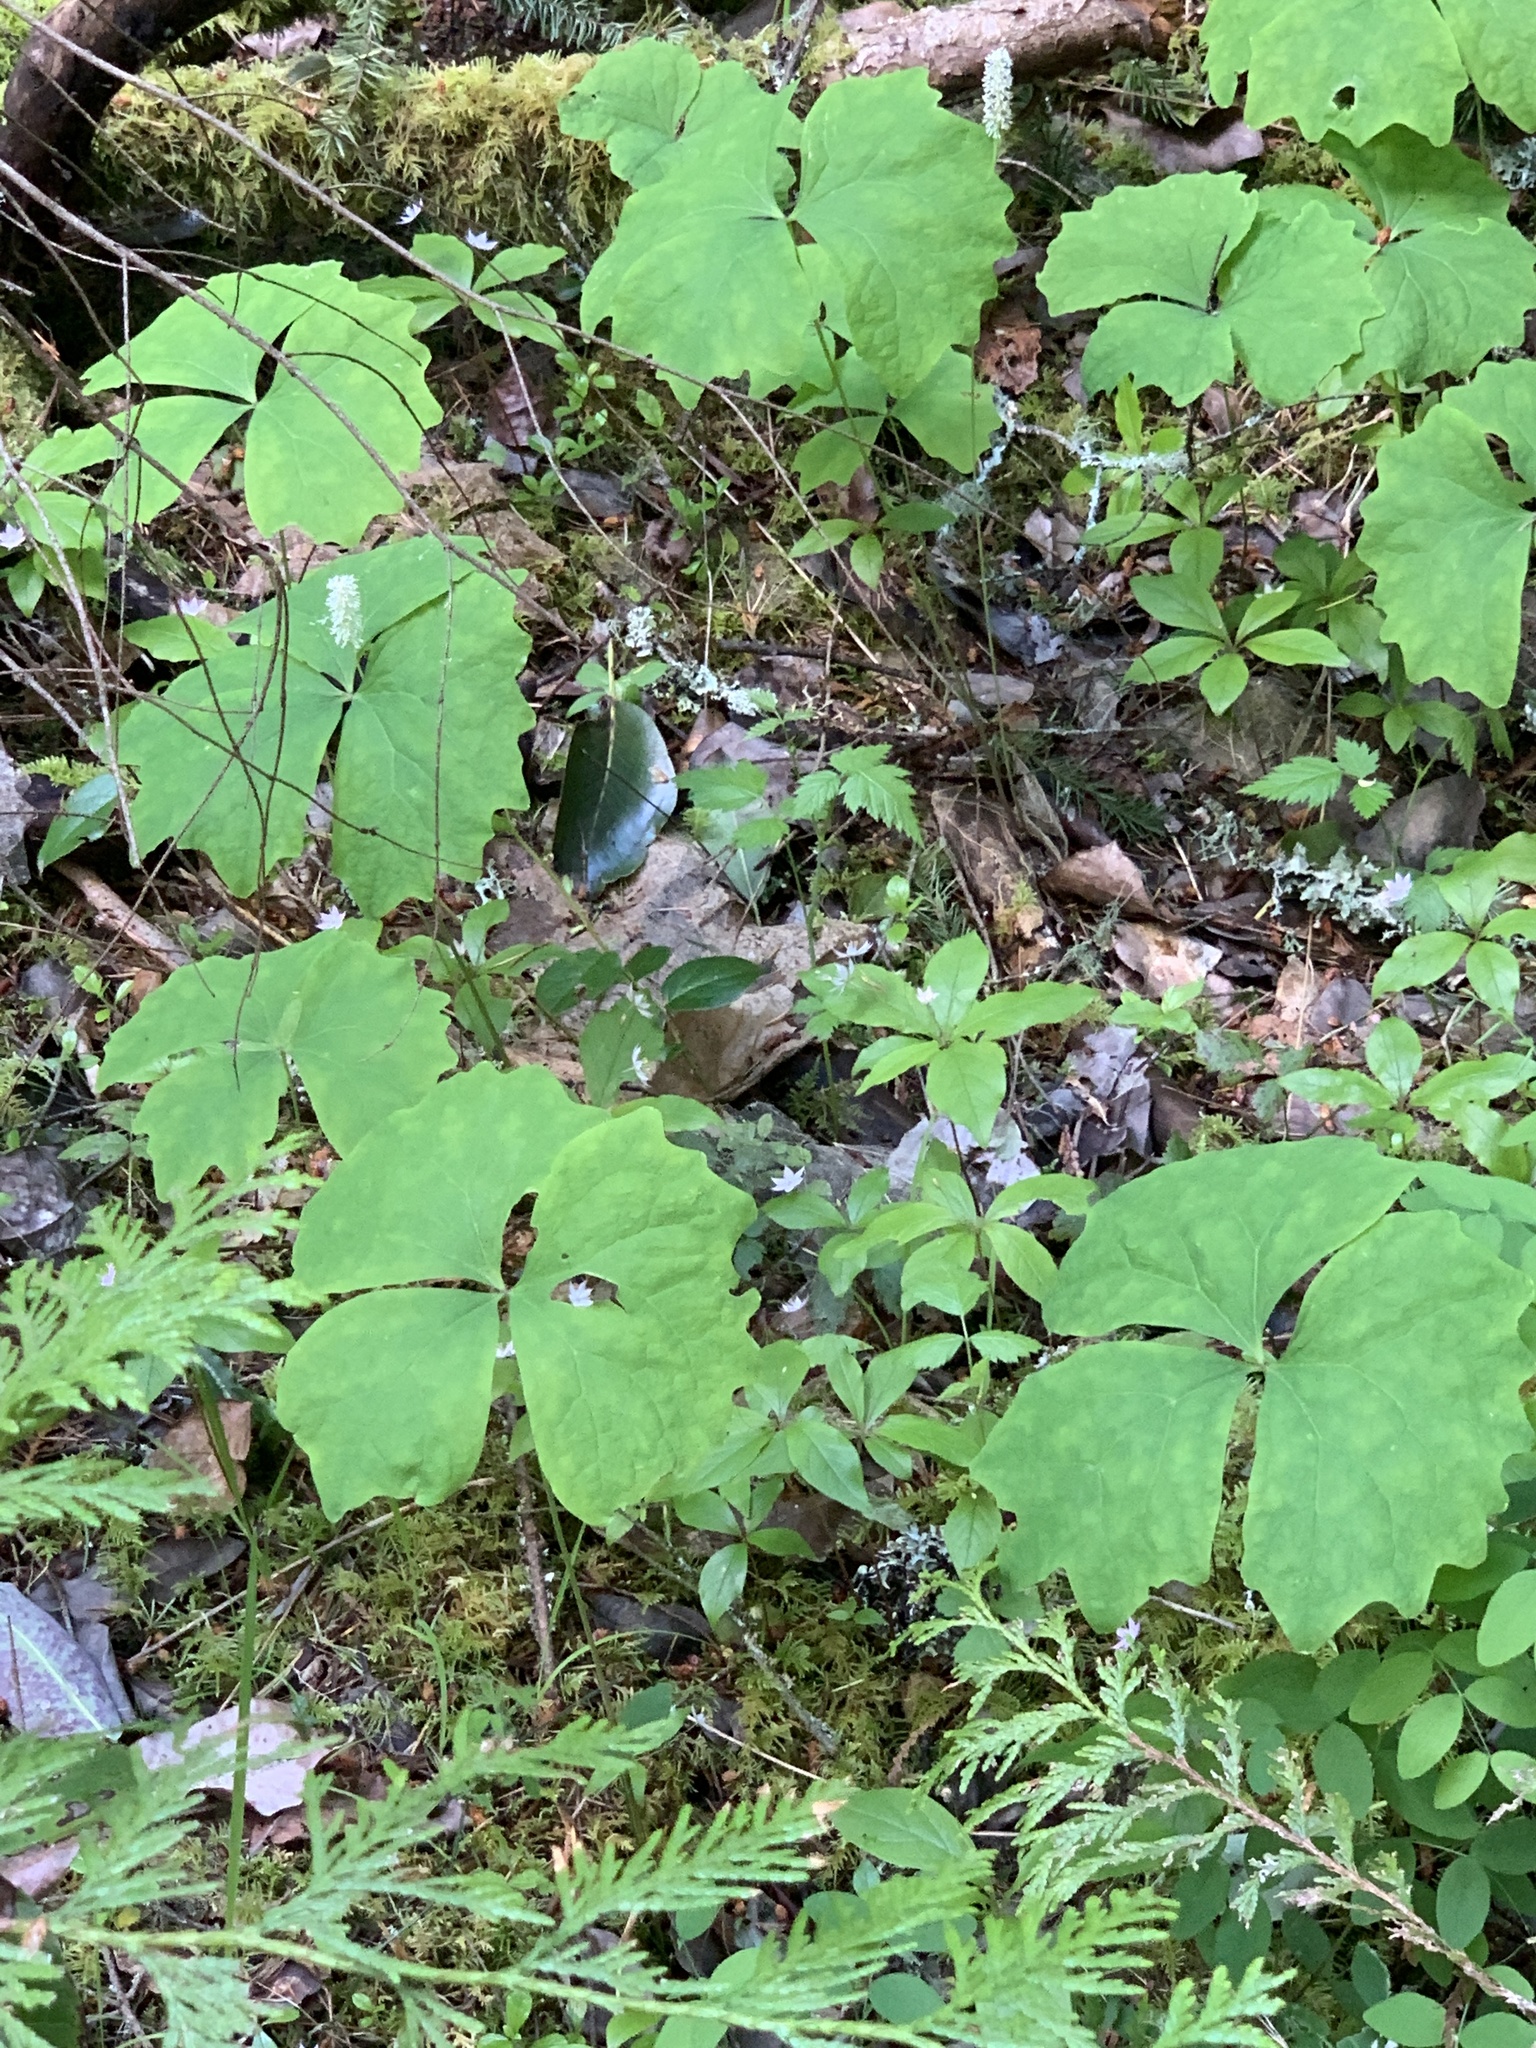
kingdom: Plantae
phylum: Tracheophyta
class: Magnoliopsida
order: Ranunculales
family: Berberidaceae
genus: Achlys
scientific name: Achlys triphylla
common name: Vanilla-leaf
